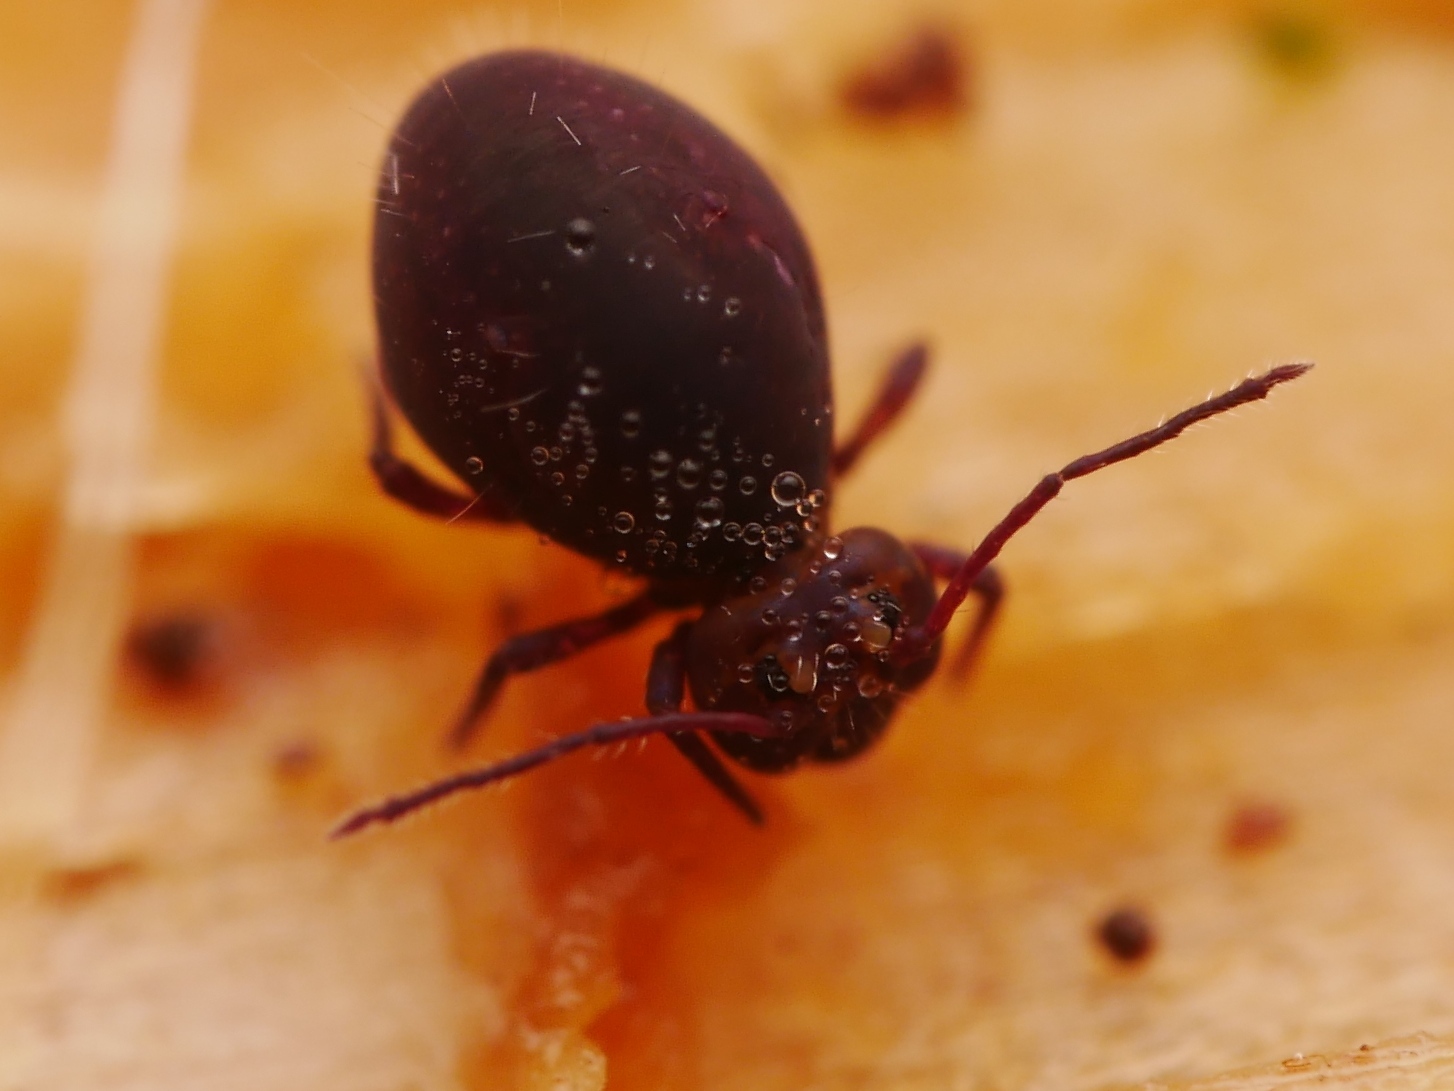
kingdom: Animalia
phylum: Arthropoda
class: Collembola
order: Symphypleona
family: Dicyrtomidae
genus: Dicyrtoma
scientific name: Dicyrtoma fusca
